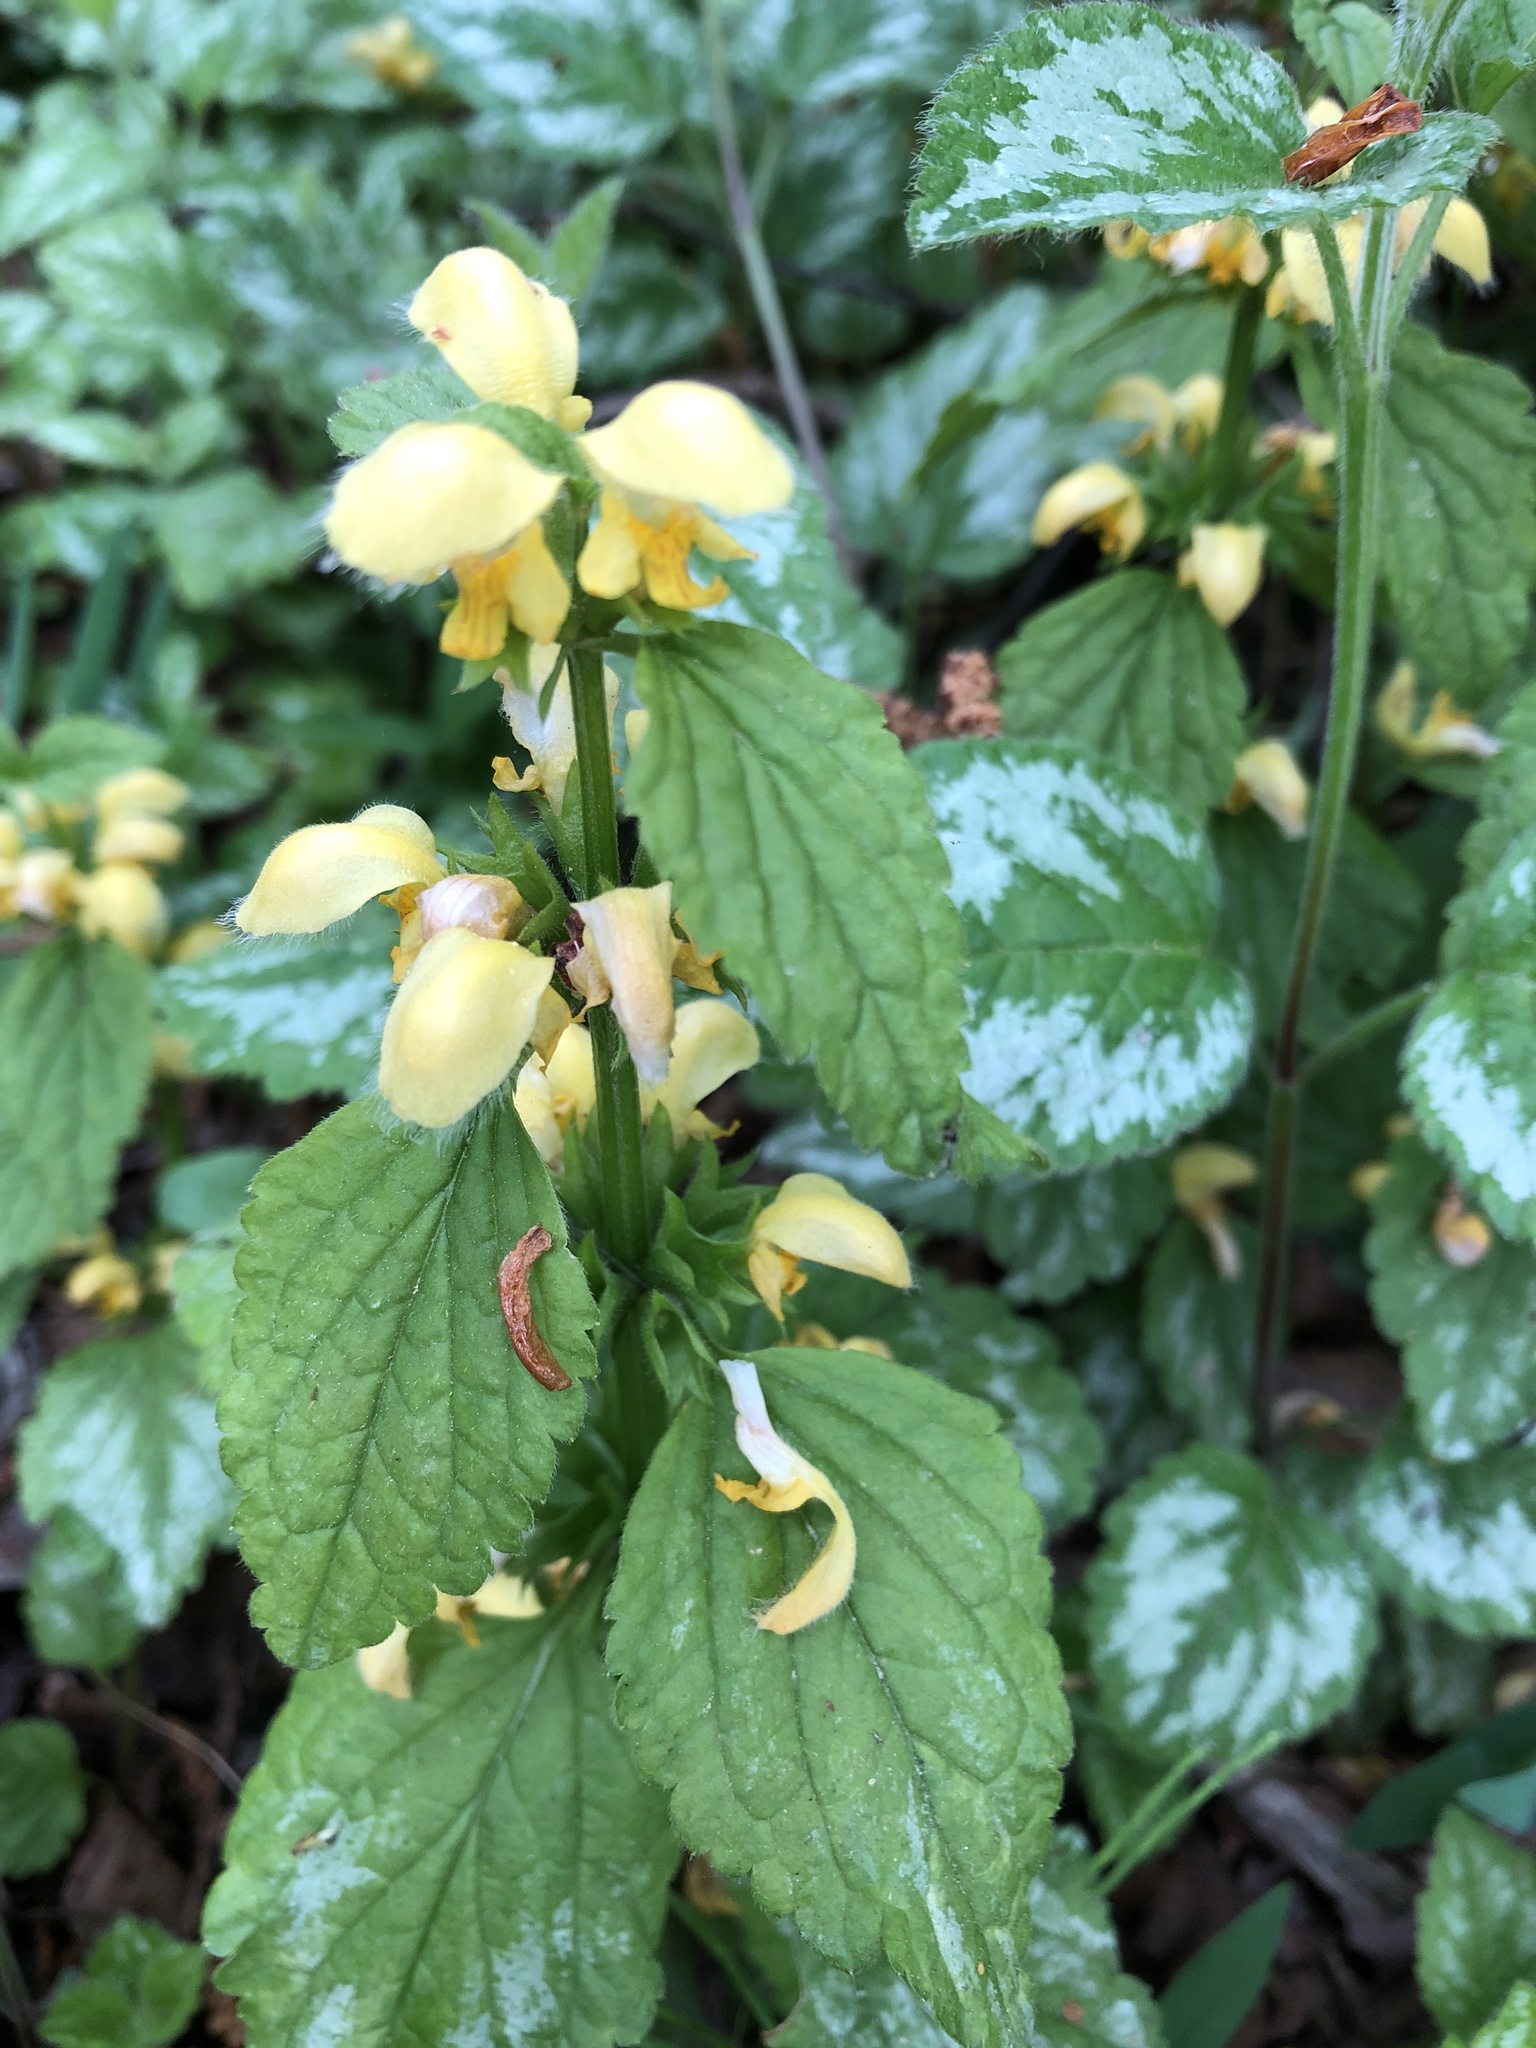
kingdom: Plantae
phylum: Tracheophyta
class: Magnoliopsida
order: Lamiales
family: Lamiaceae
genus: Lamium
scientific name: Lamium galeobdolon
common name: Yellow archangel
